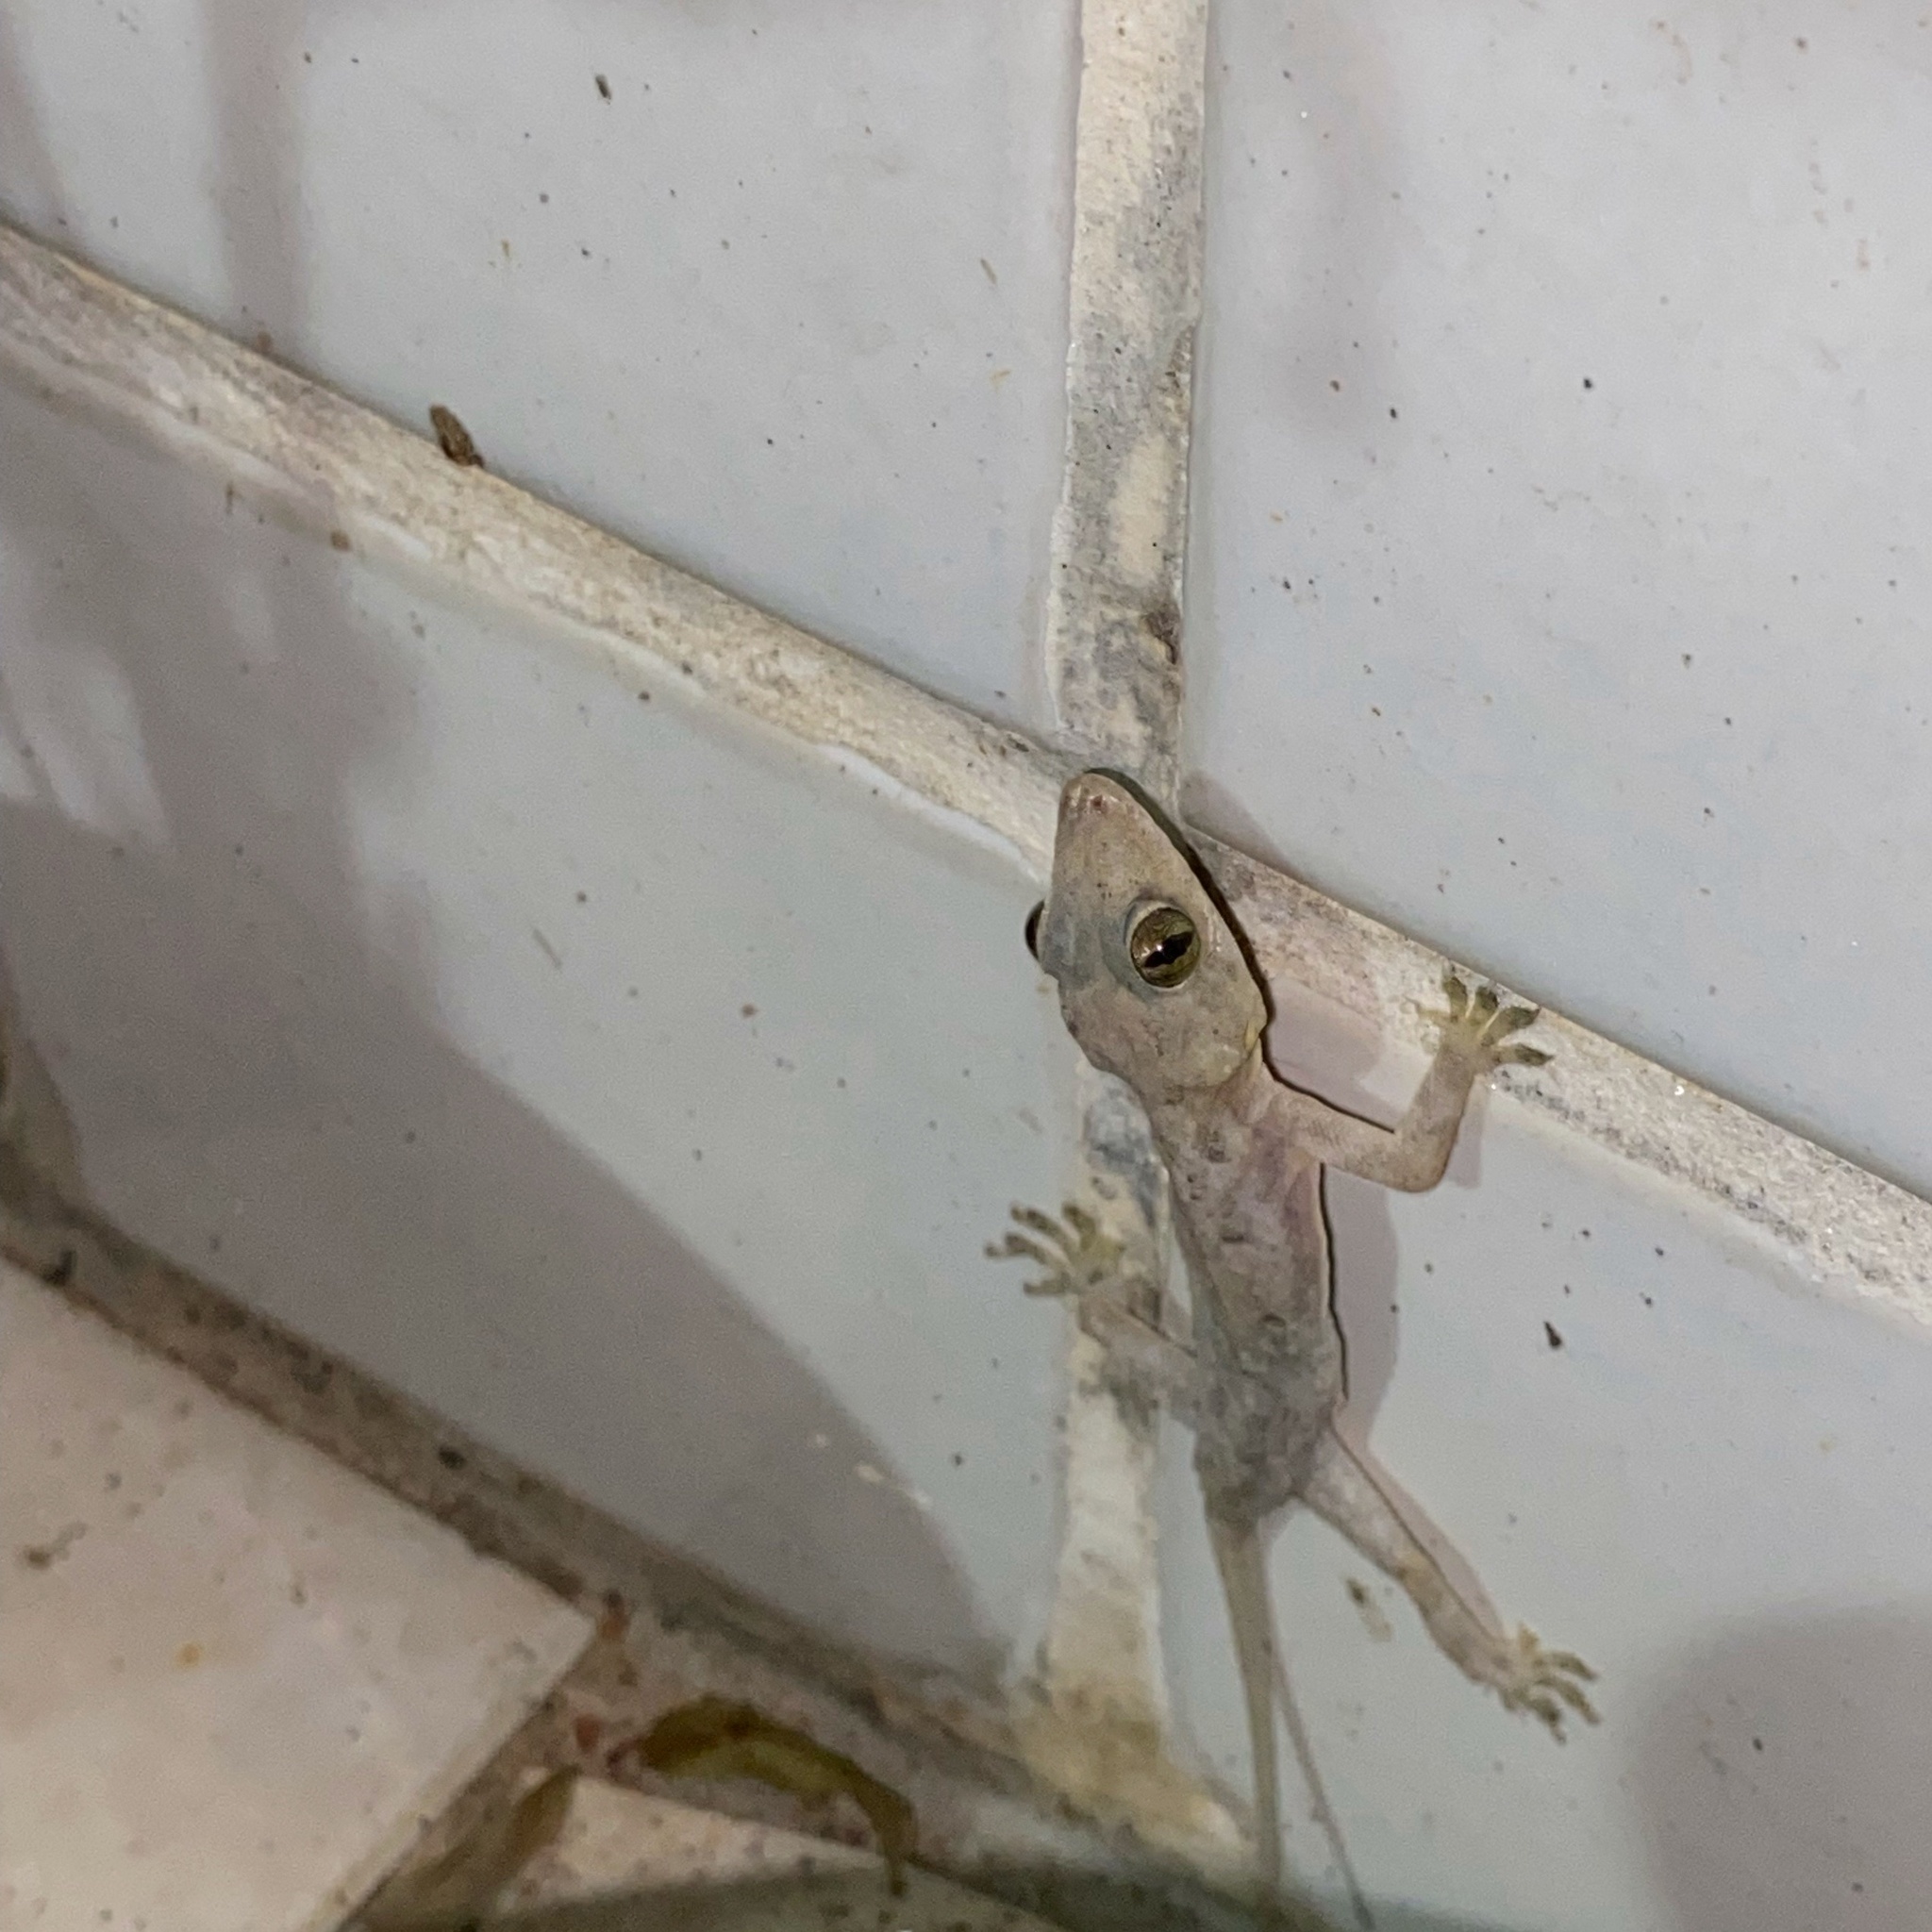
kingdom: Animalia
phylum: Chordata
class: Squamata
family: Gekkonidae
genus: Hemidactylus
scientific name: Hemidactylus mabouia
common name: House gecko
